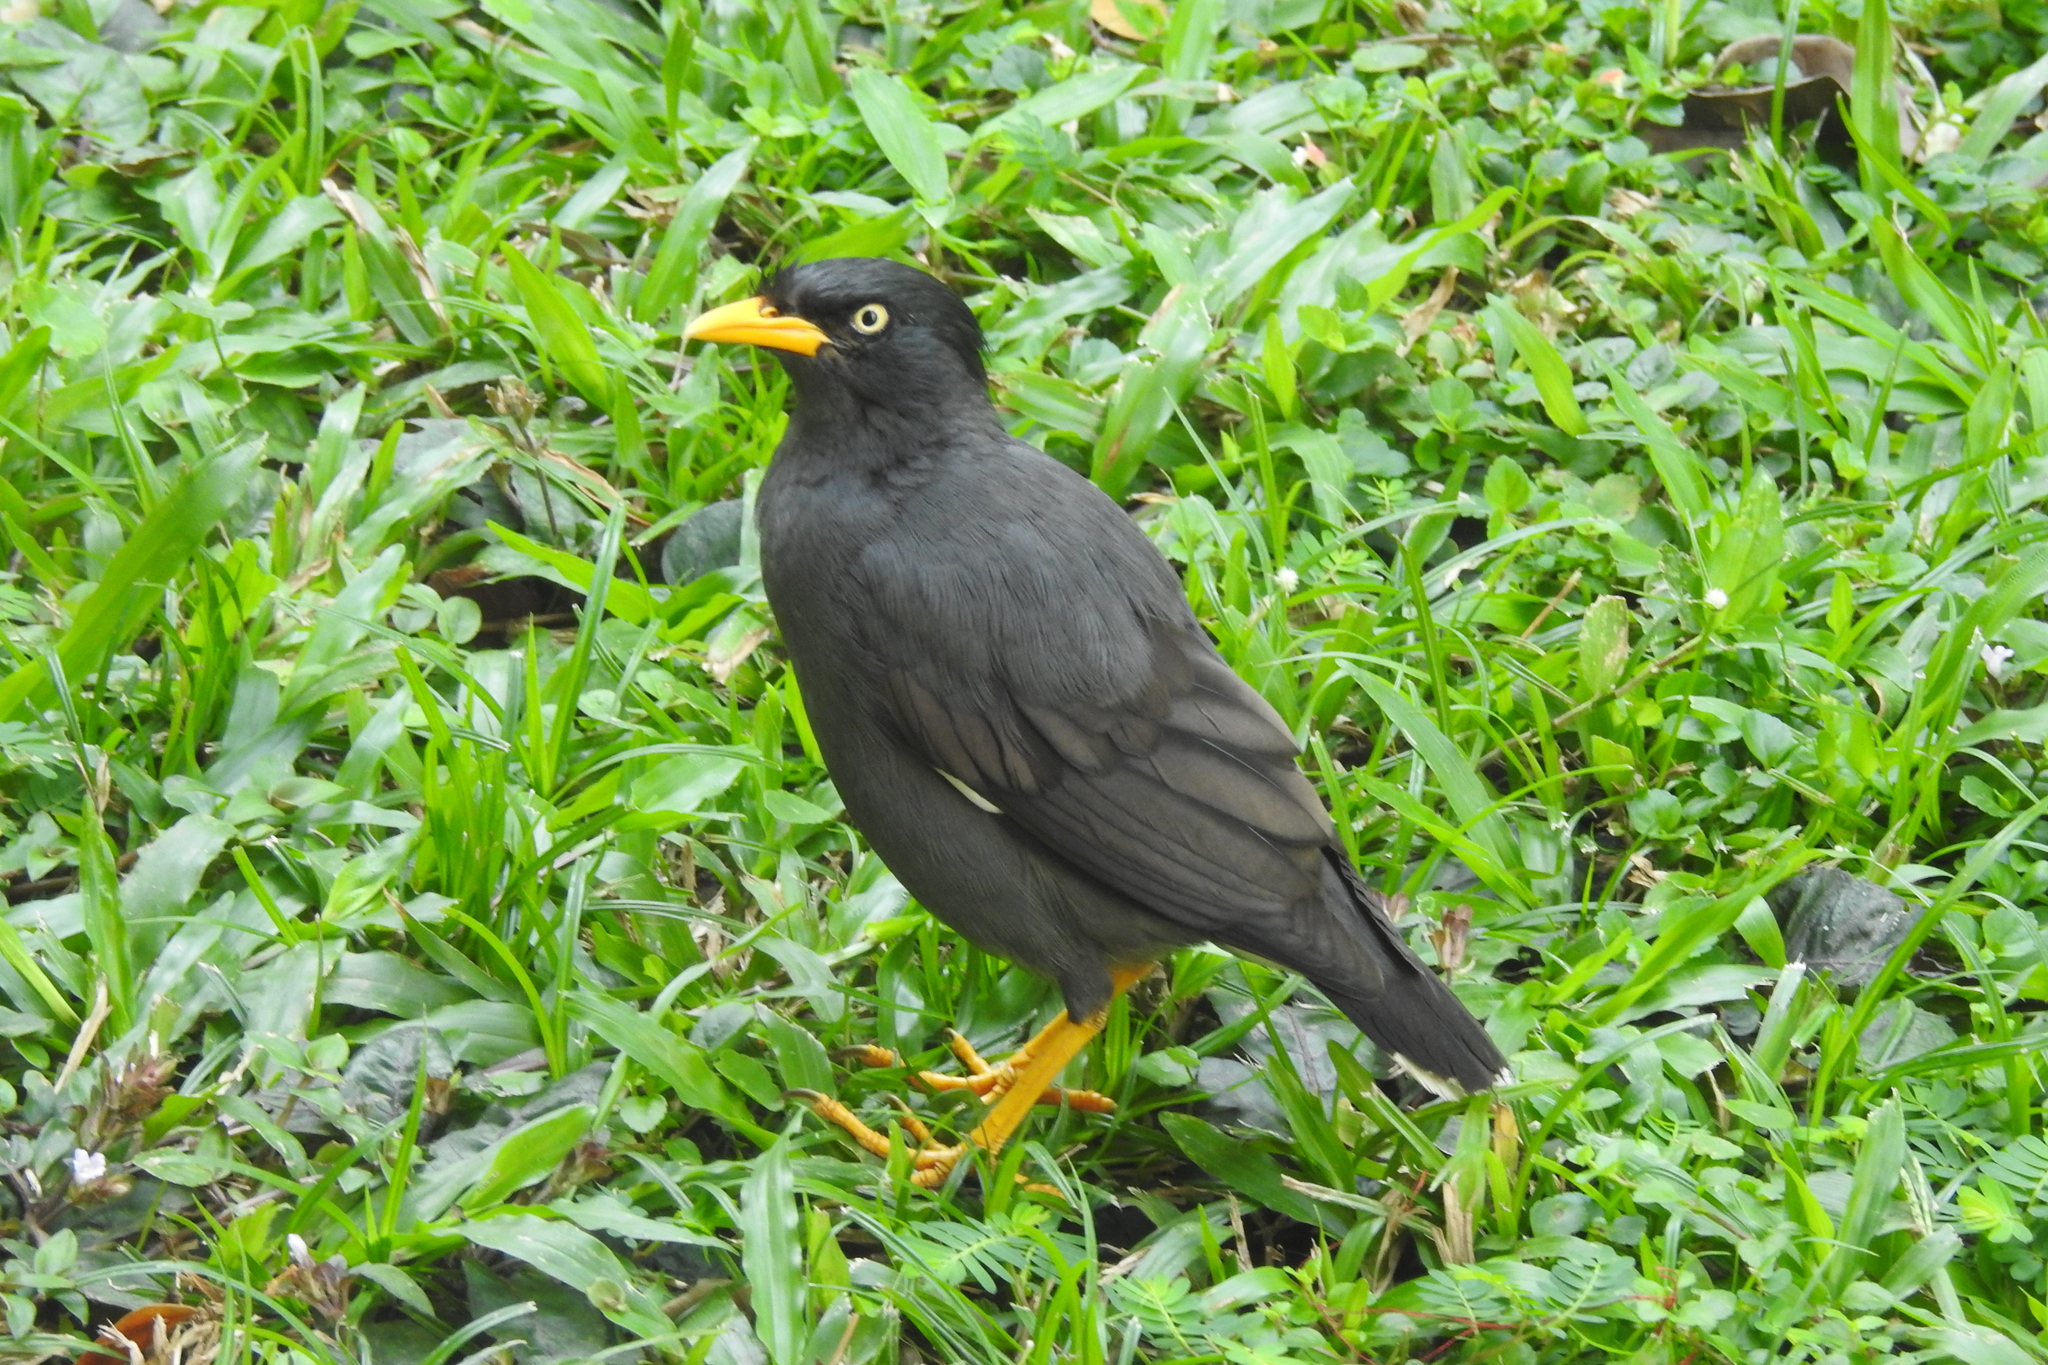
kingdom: Animalia
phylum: Chordata
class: Aves
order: Passeriformes
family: Sturnidae
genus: Acridotheres
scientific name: Acridotheres javanicus
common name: Javan myna
